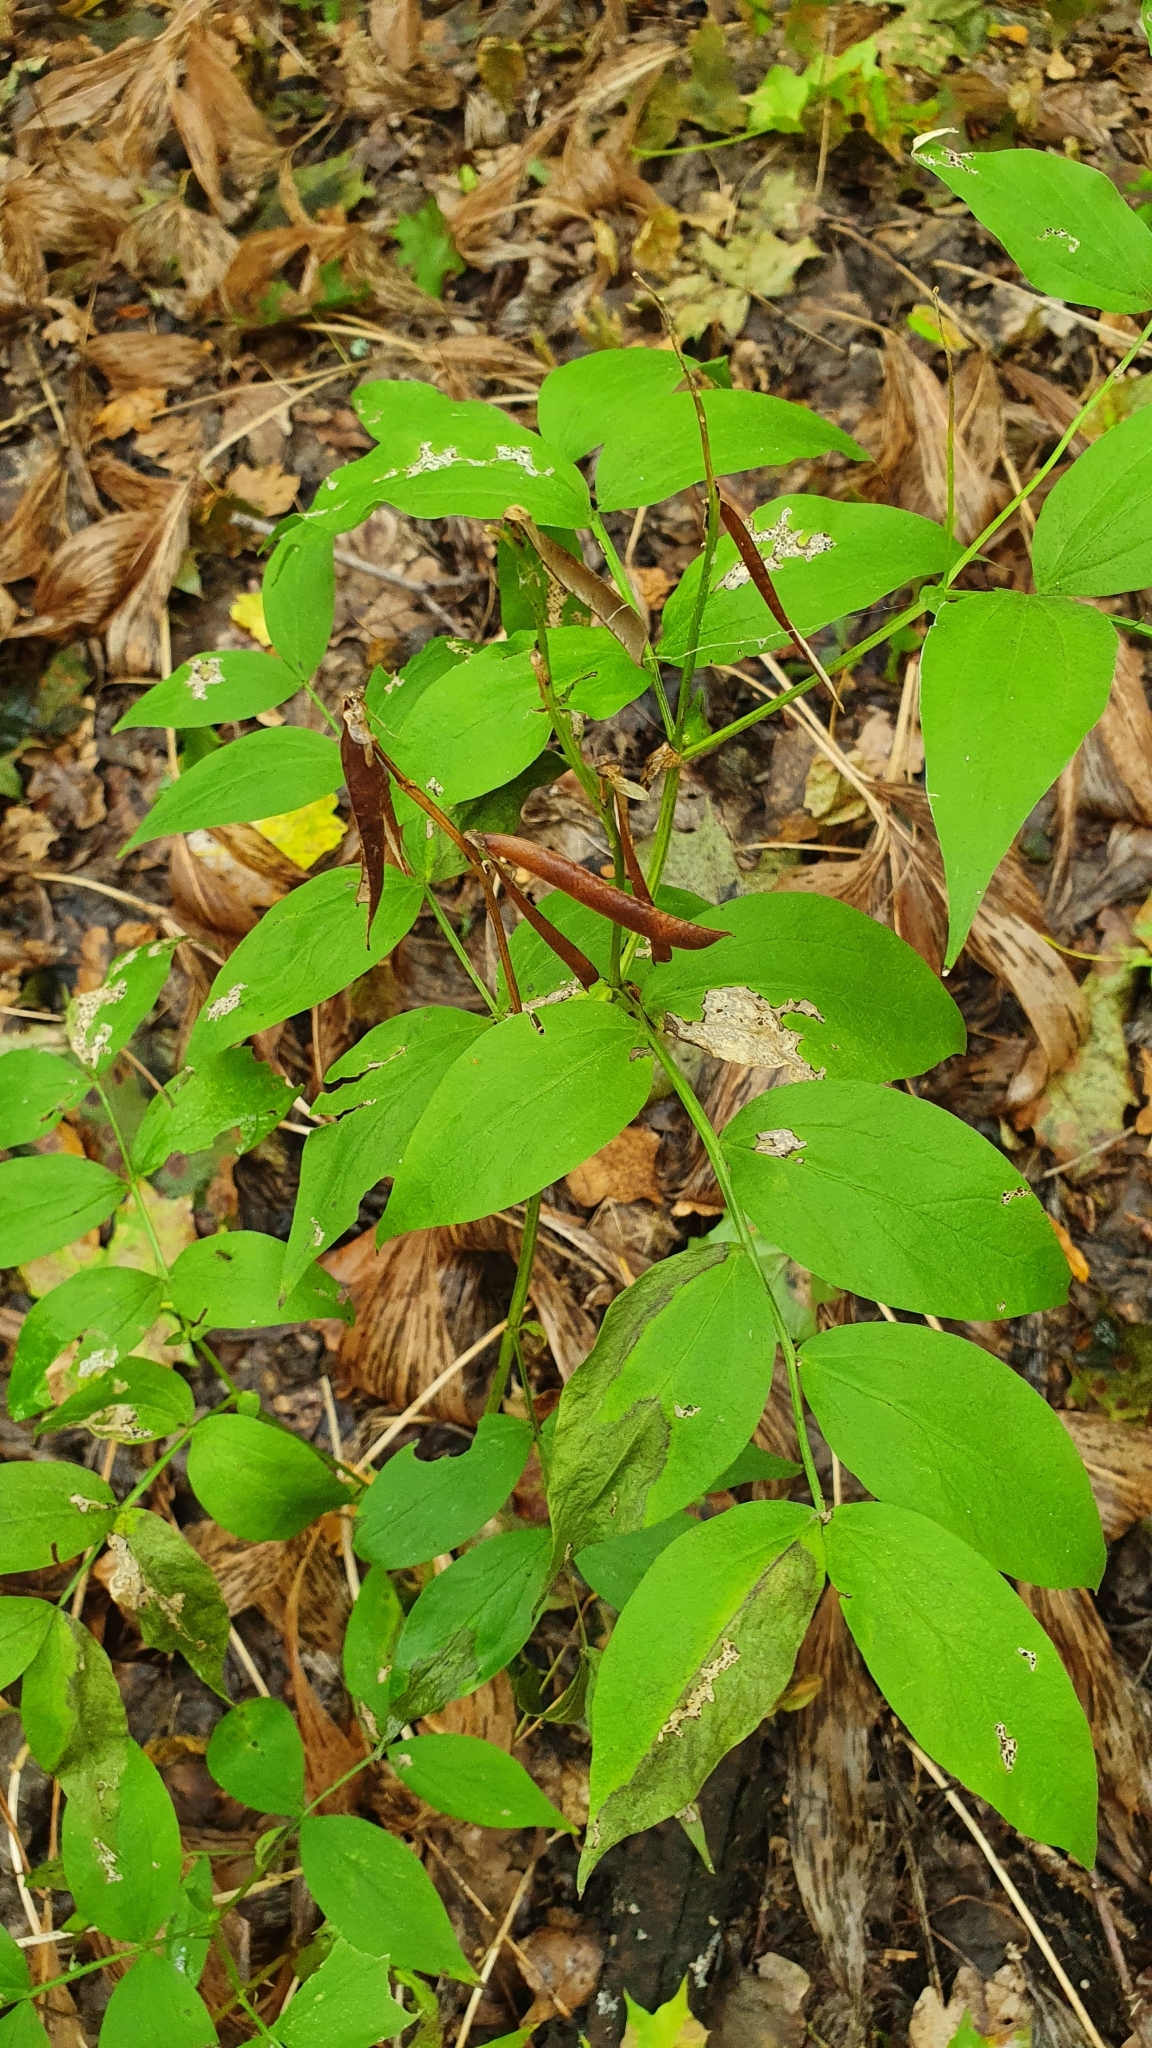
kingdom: Plantae
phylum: Tracheophyta
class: Magnoliopsida
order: Fabales
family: Fabaceae
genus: Lathyrus
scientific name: Lathyrus vernus
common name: Spring pea
